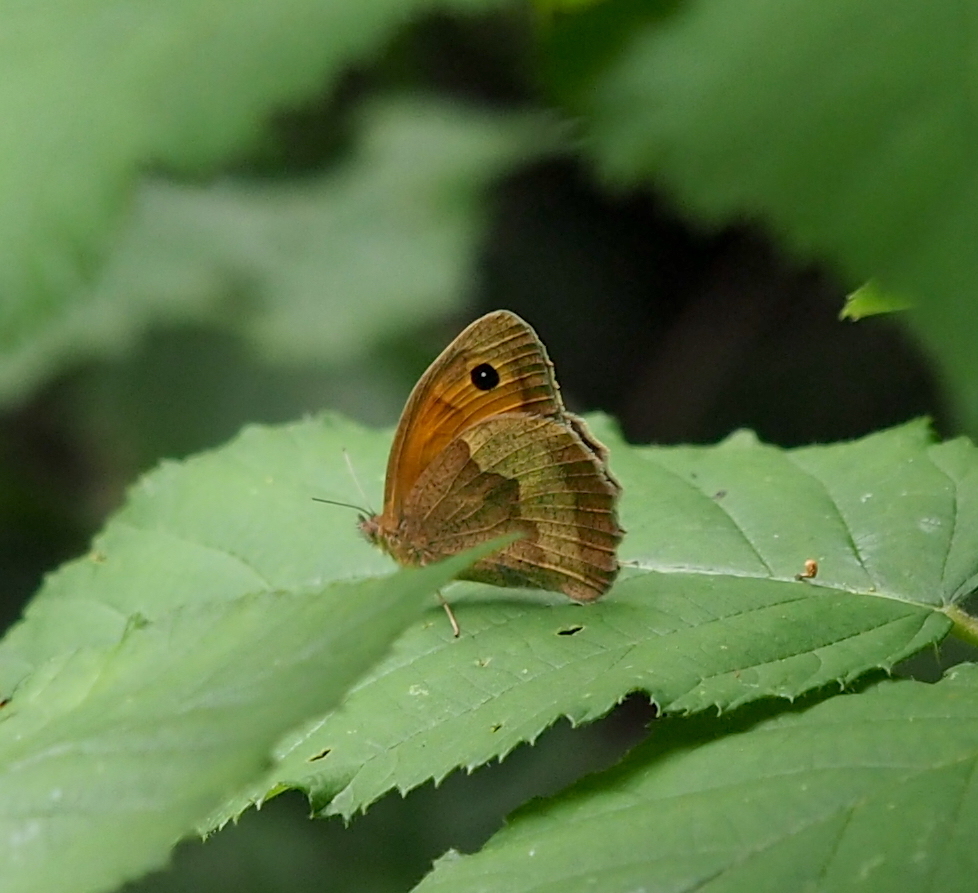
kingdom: Animalia
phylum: Arthropoda
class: Insecta
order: Lepidoptera
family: Nymphalidae
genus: Maniola
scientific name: Maniola jurtina
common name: Meadow brown
